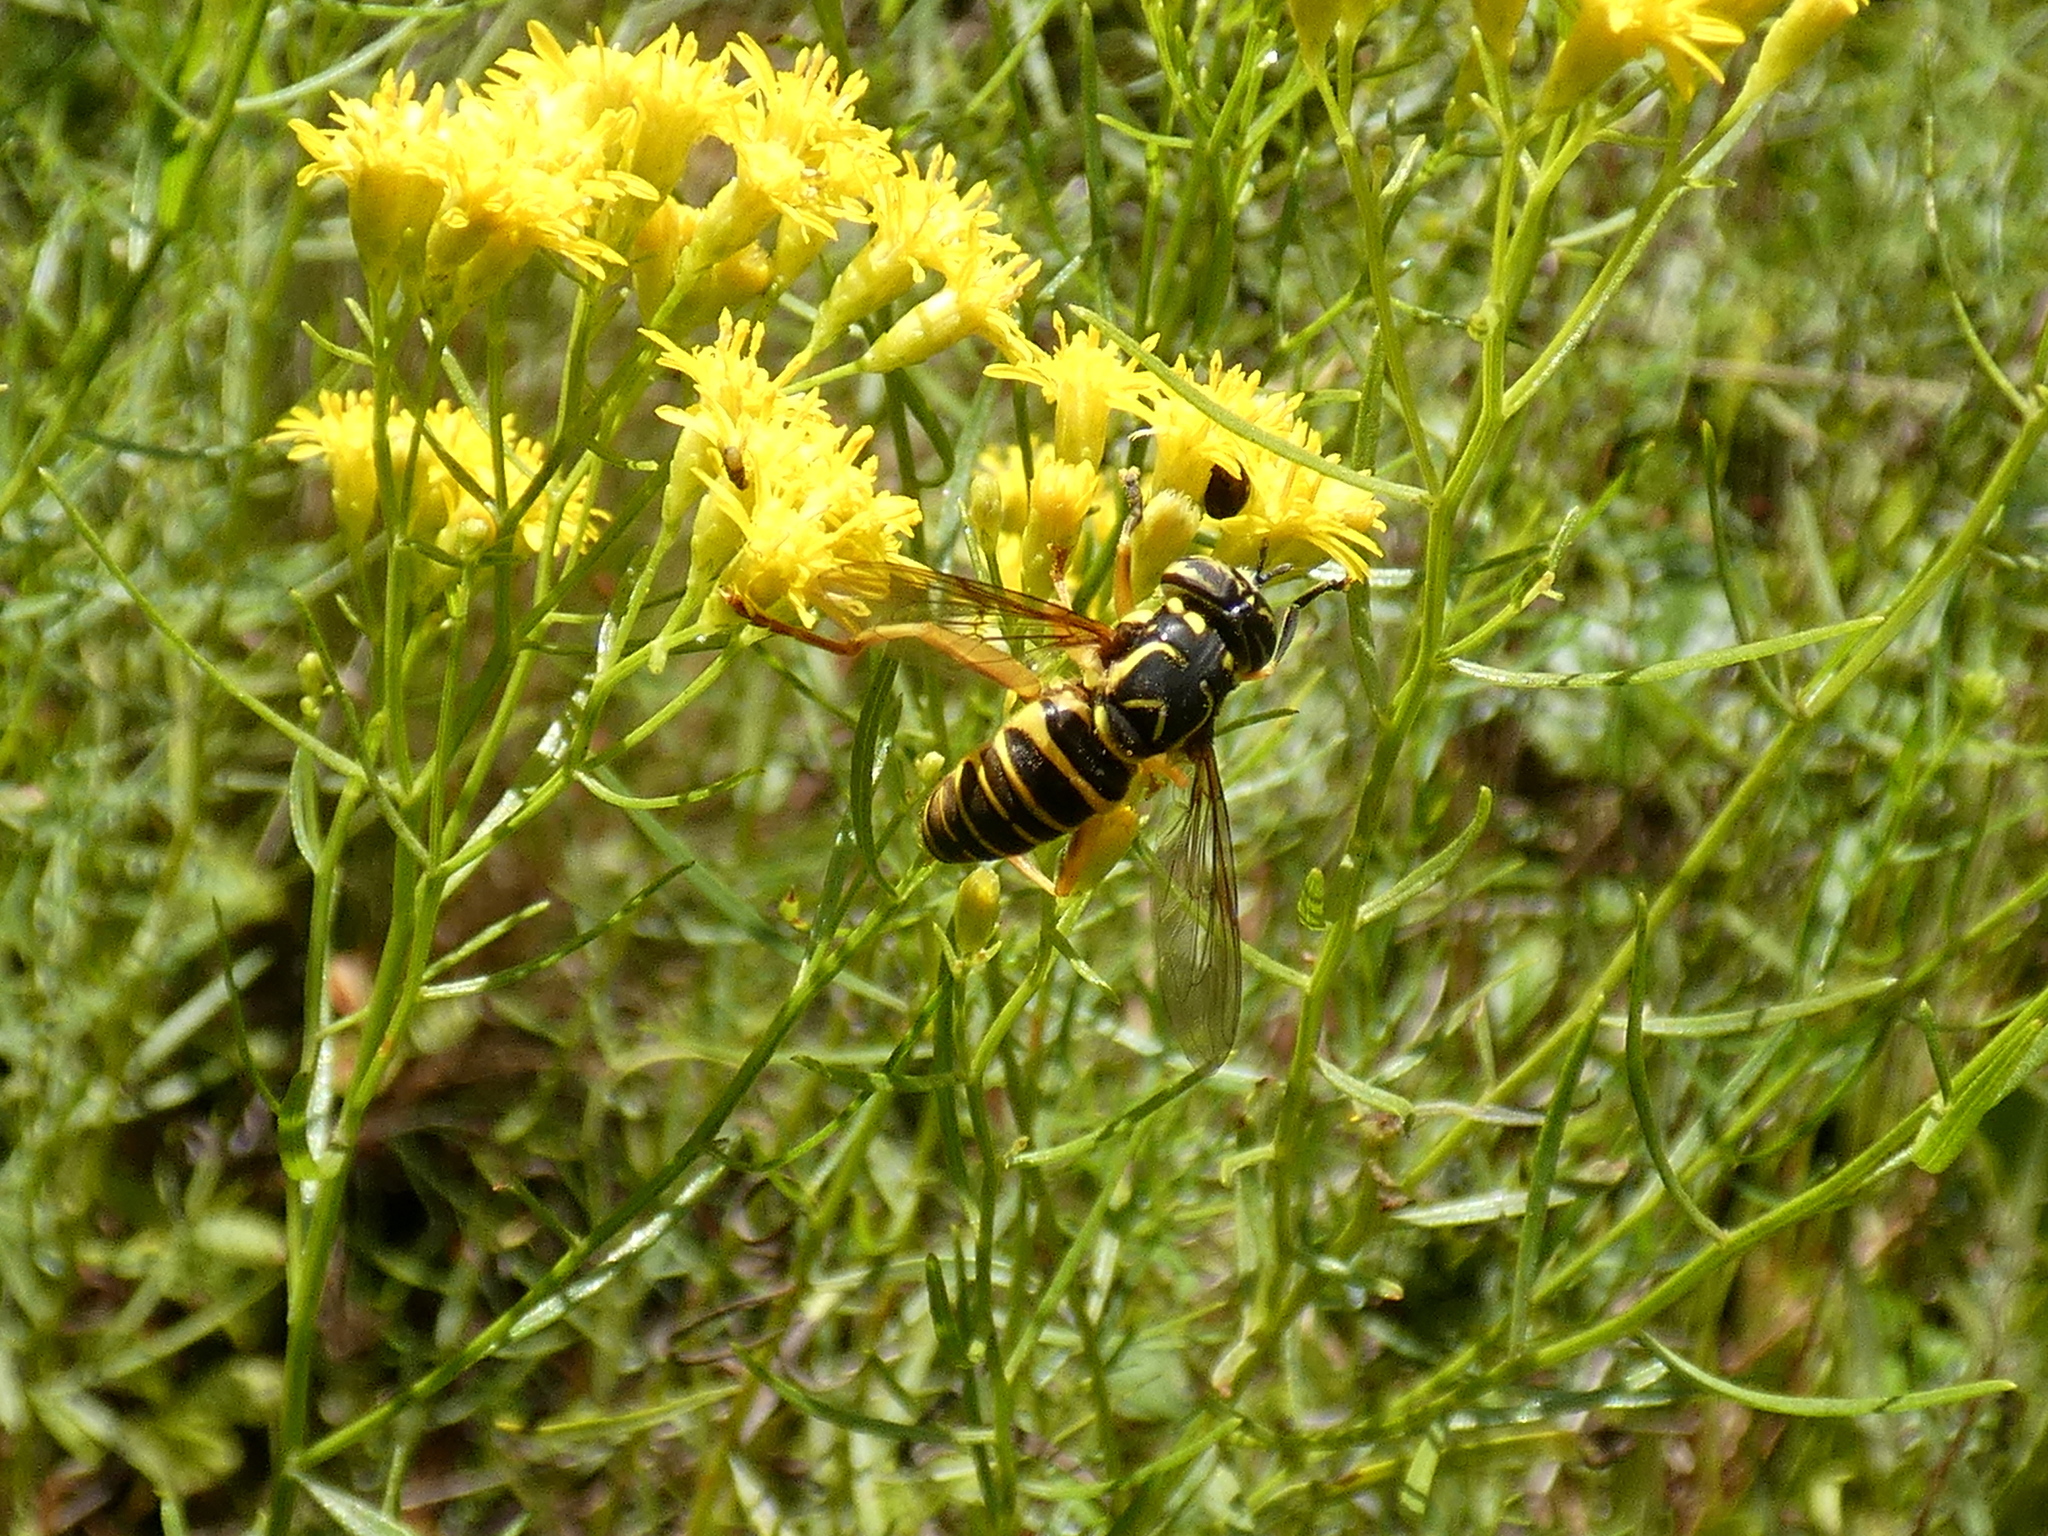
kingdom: Animalia
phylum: Arthropoda
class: Insecta
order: Diptera
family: Syrphidae
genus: Spilomyia
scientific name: Spilomyia longicornis
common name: Eastern hornet fly
